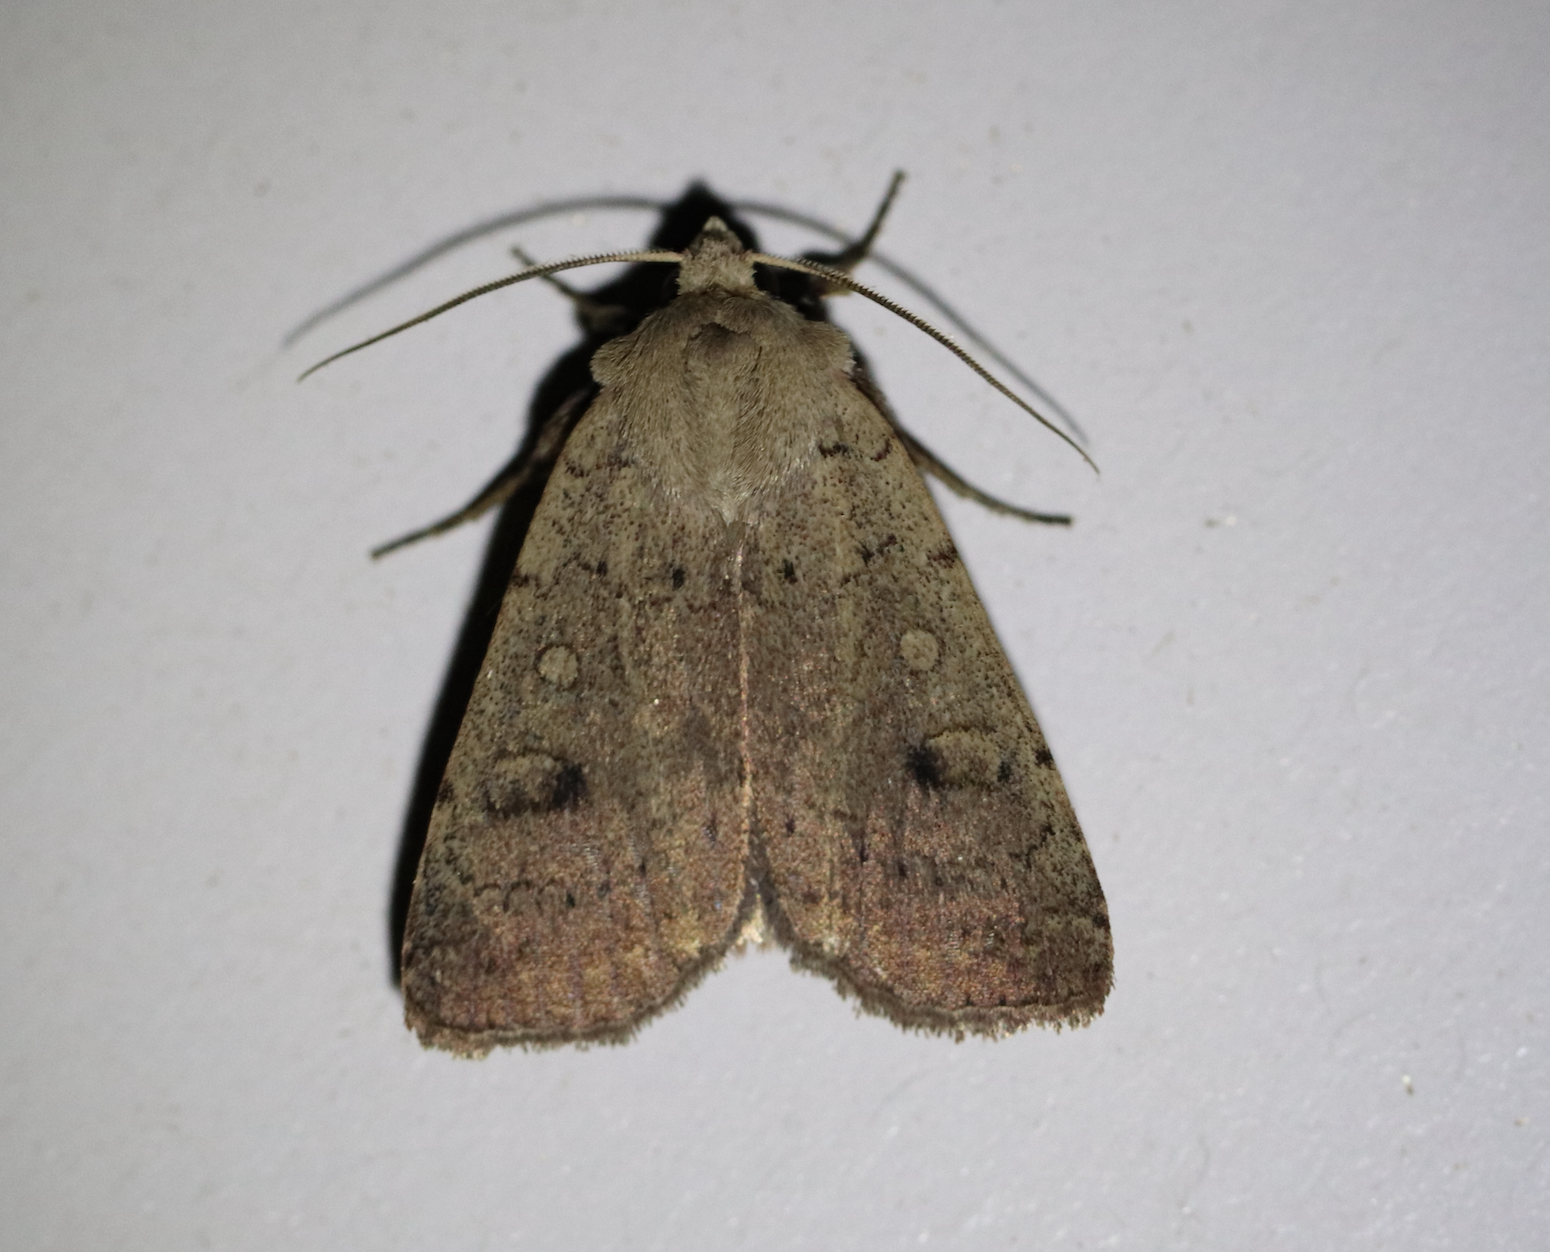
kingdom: Animalia
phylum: Arthropoda
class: Insecta
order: Lepidoptera
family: Noctuidae
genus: Xestia
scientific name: Xestia castanea
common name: Neglected rustic
